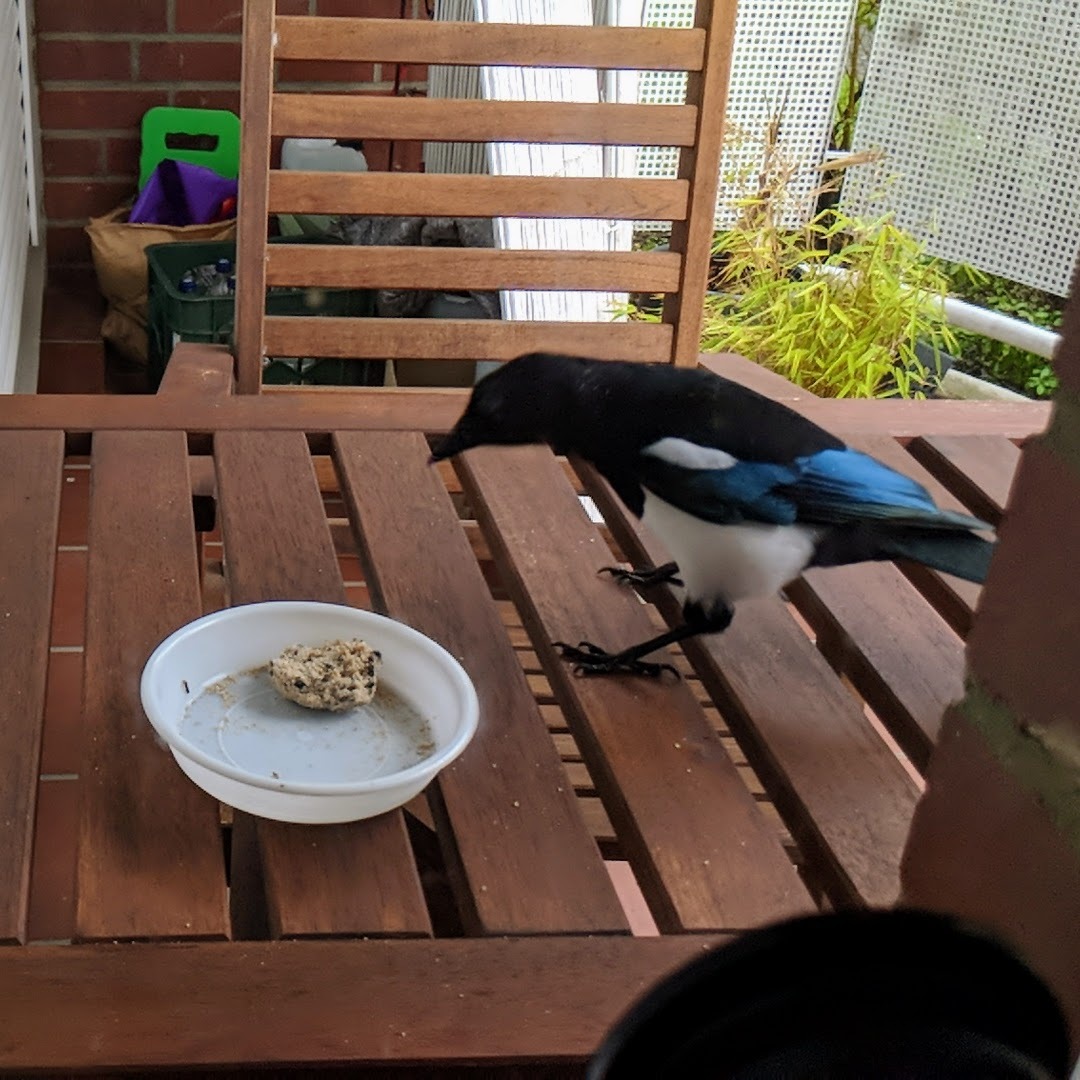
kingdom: Animalia
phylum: Chordata
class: Aves
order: Passeriformes
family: Corvidae
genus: Pica
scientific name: Pica pica
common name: Eurasian magpie
